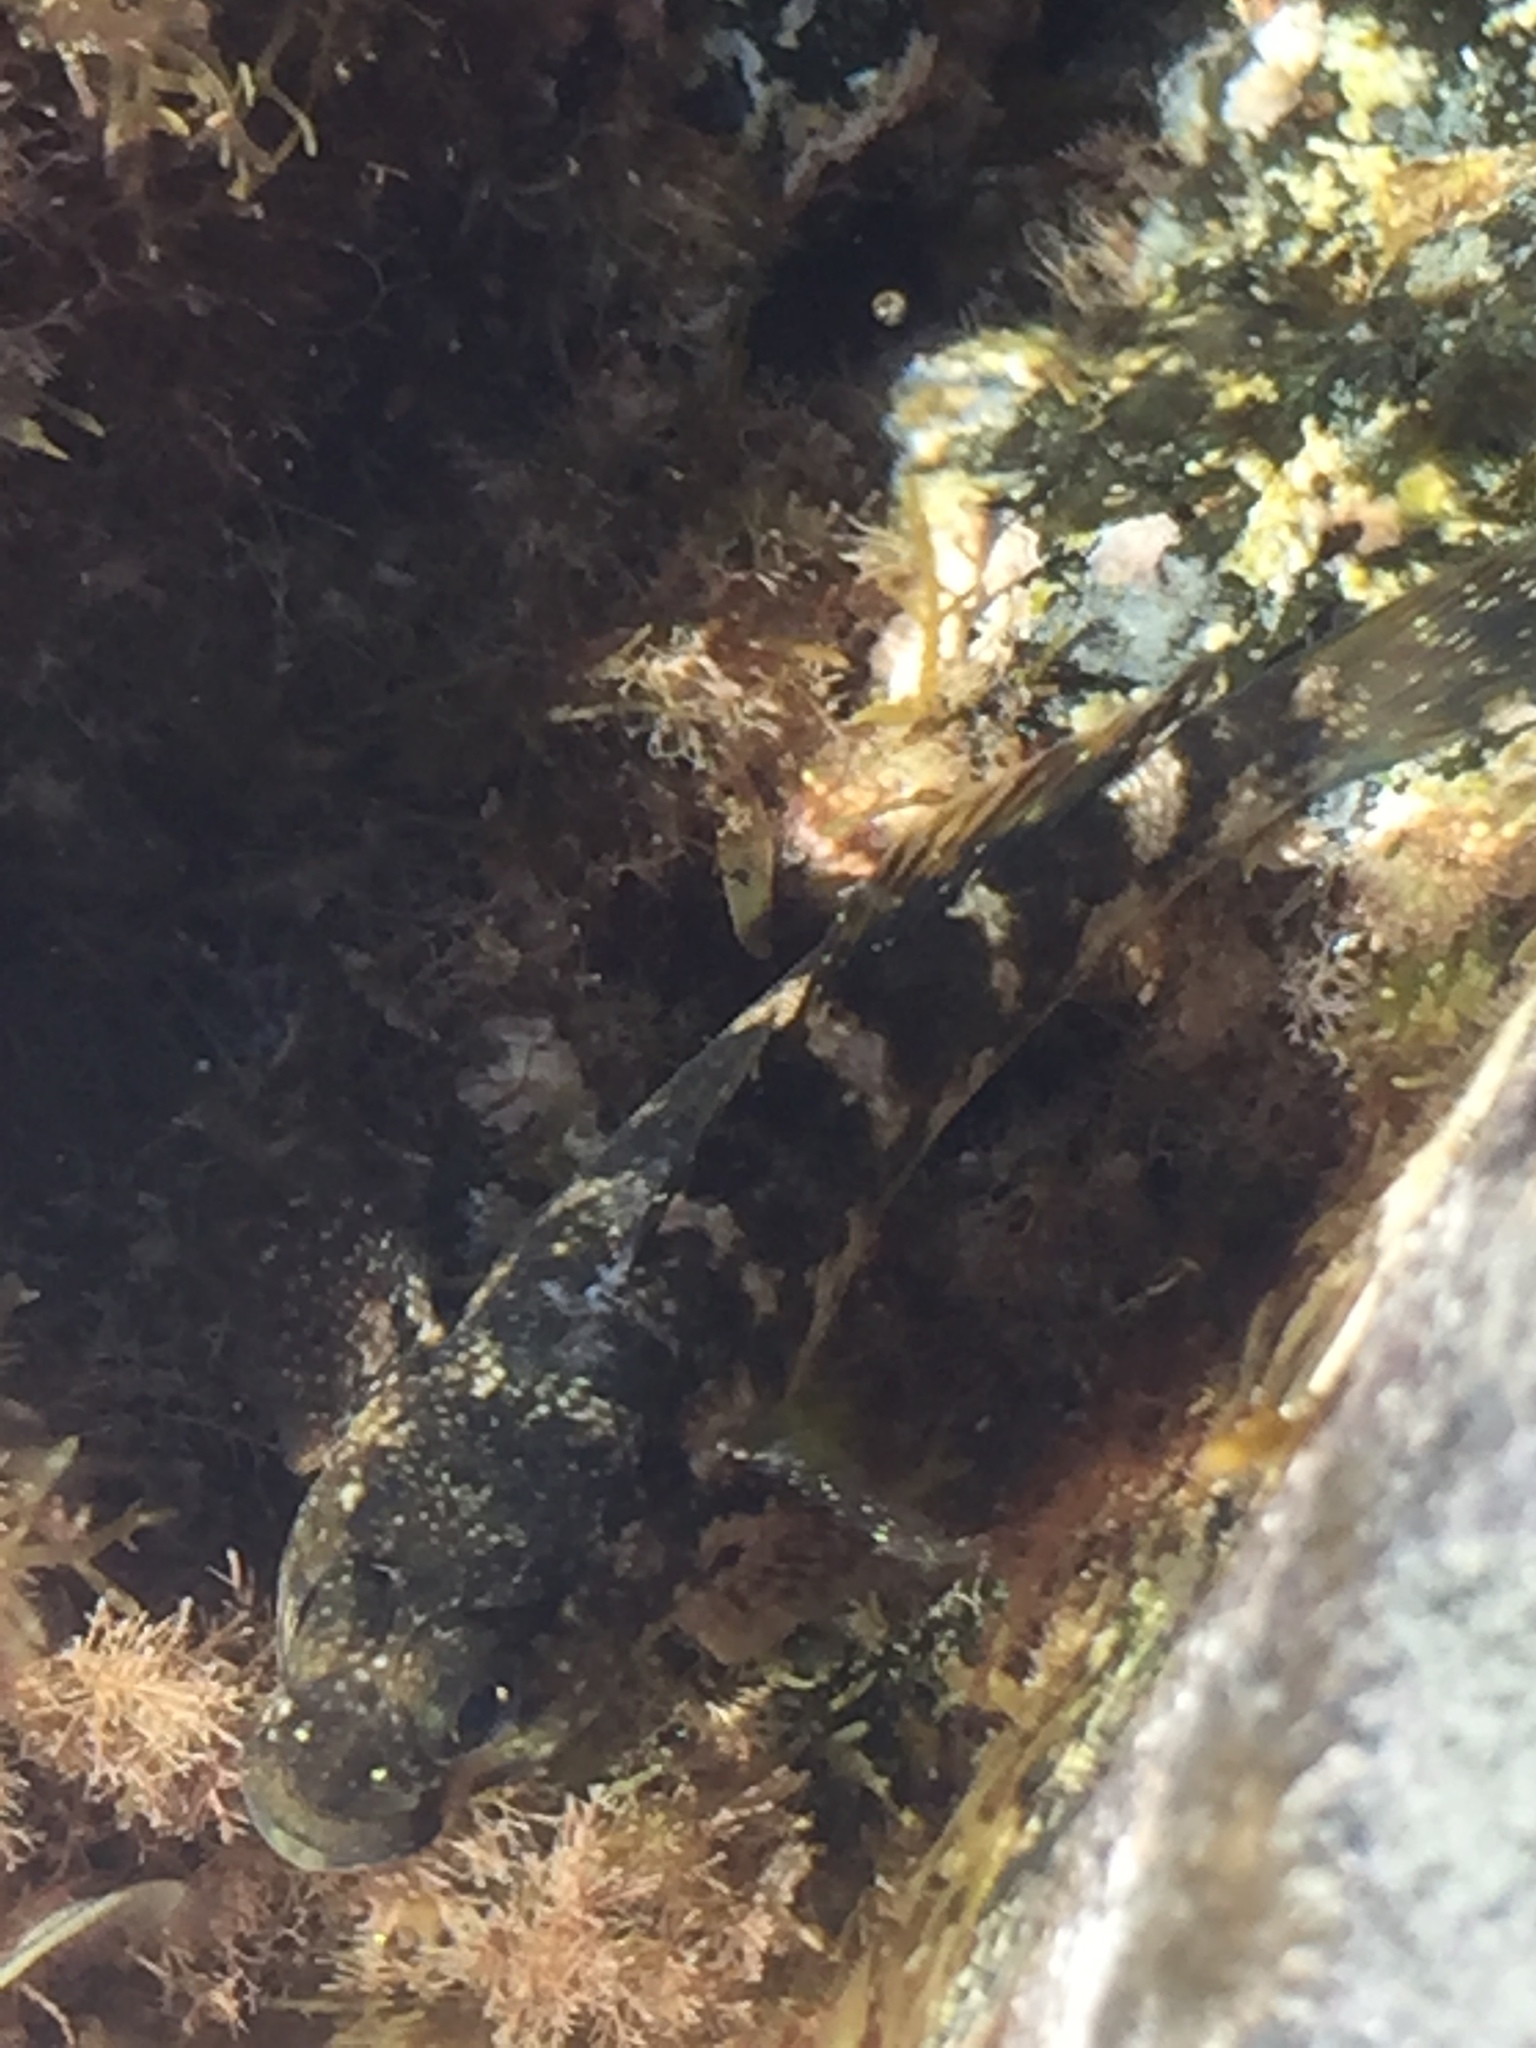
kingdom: Animalia
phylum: Chordata
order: Perciformes
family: Gobiidae
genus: Mauligobius
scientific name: Mauligobius maderensis
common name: Rock goby
